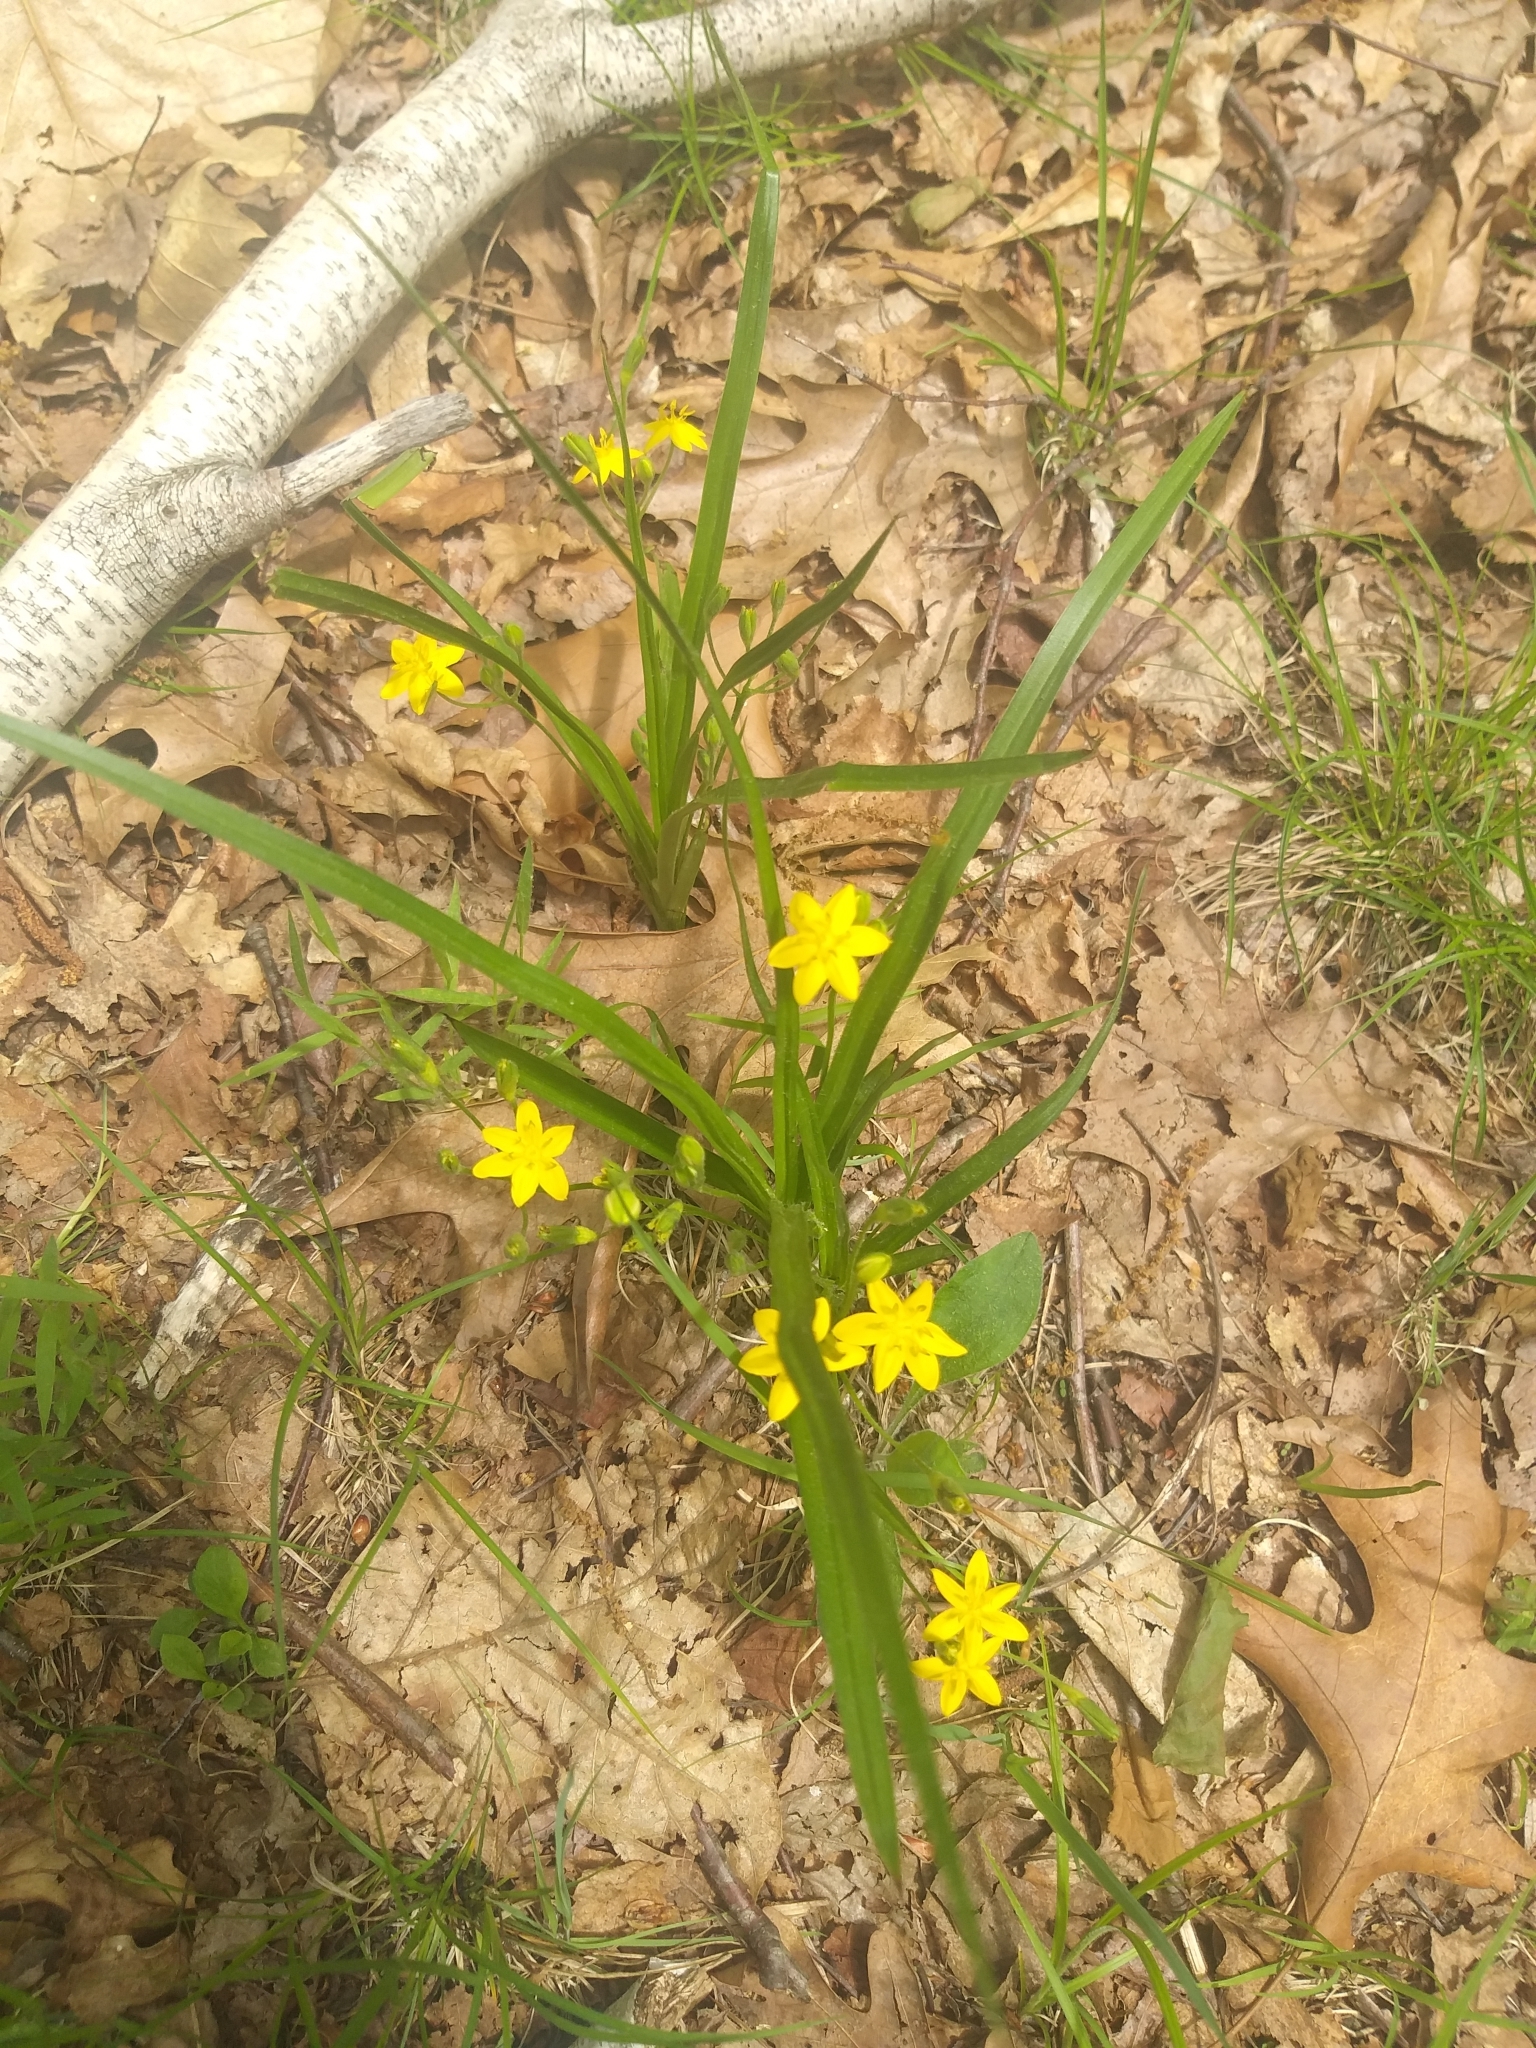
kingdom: Plantae
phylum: Tracheophyta
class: Liliopsida
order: Asparagales
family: Hypoxidaceae
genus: Hypoxis
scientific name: Hypoxis hirsuta
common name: Common goldstar
